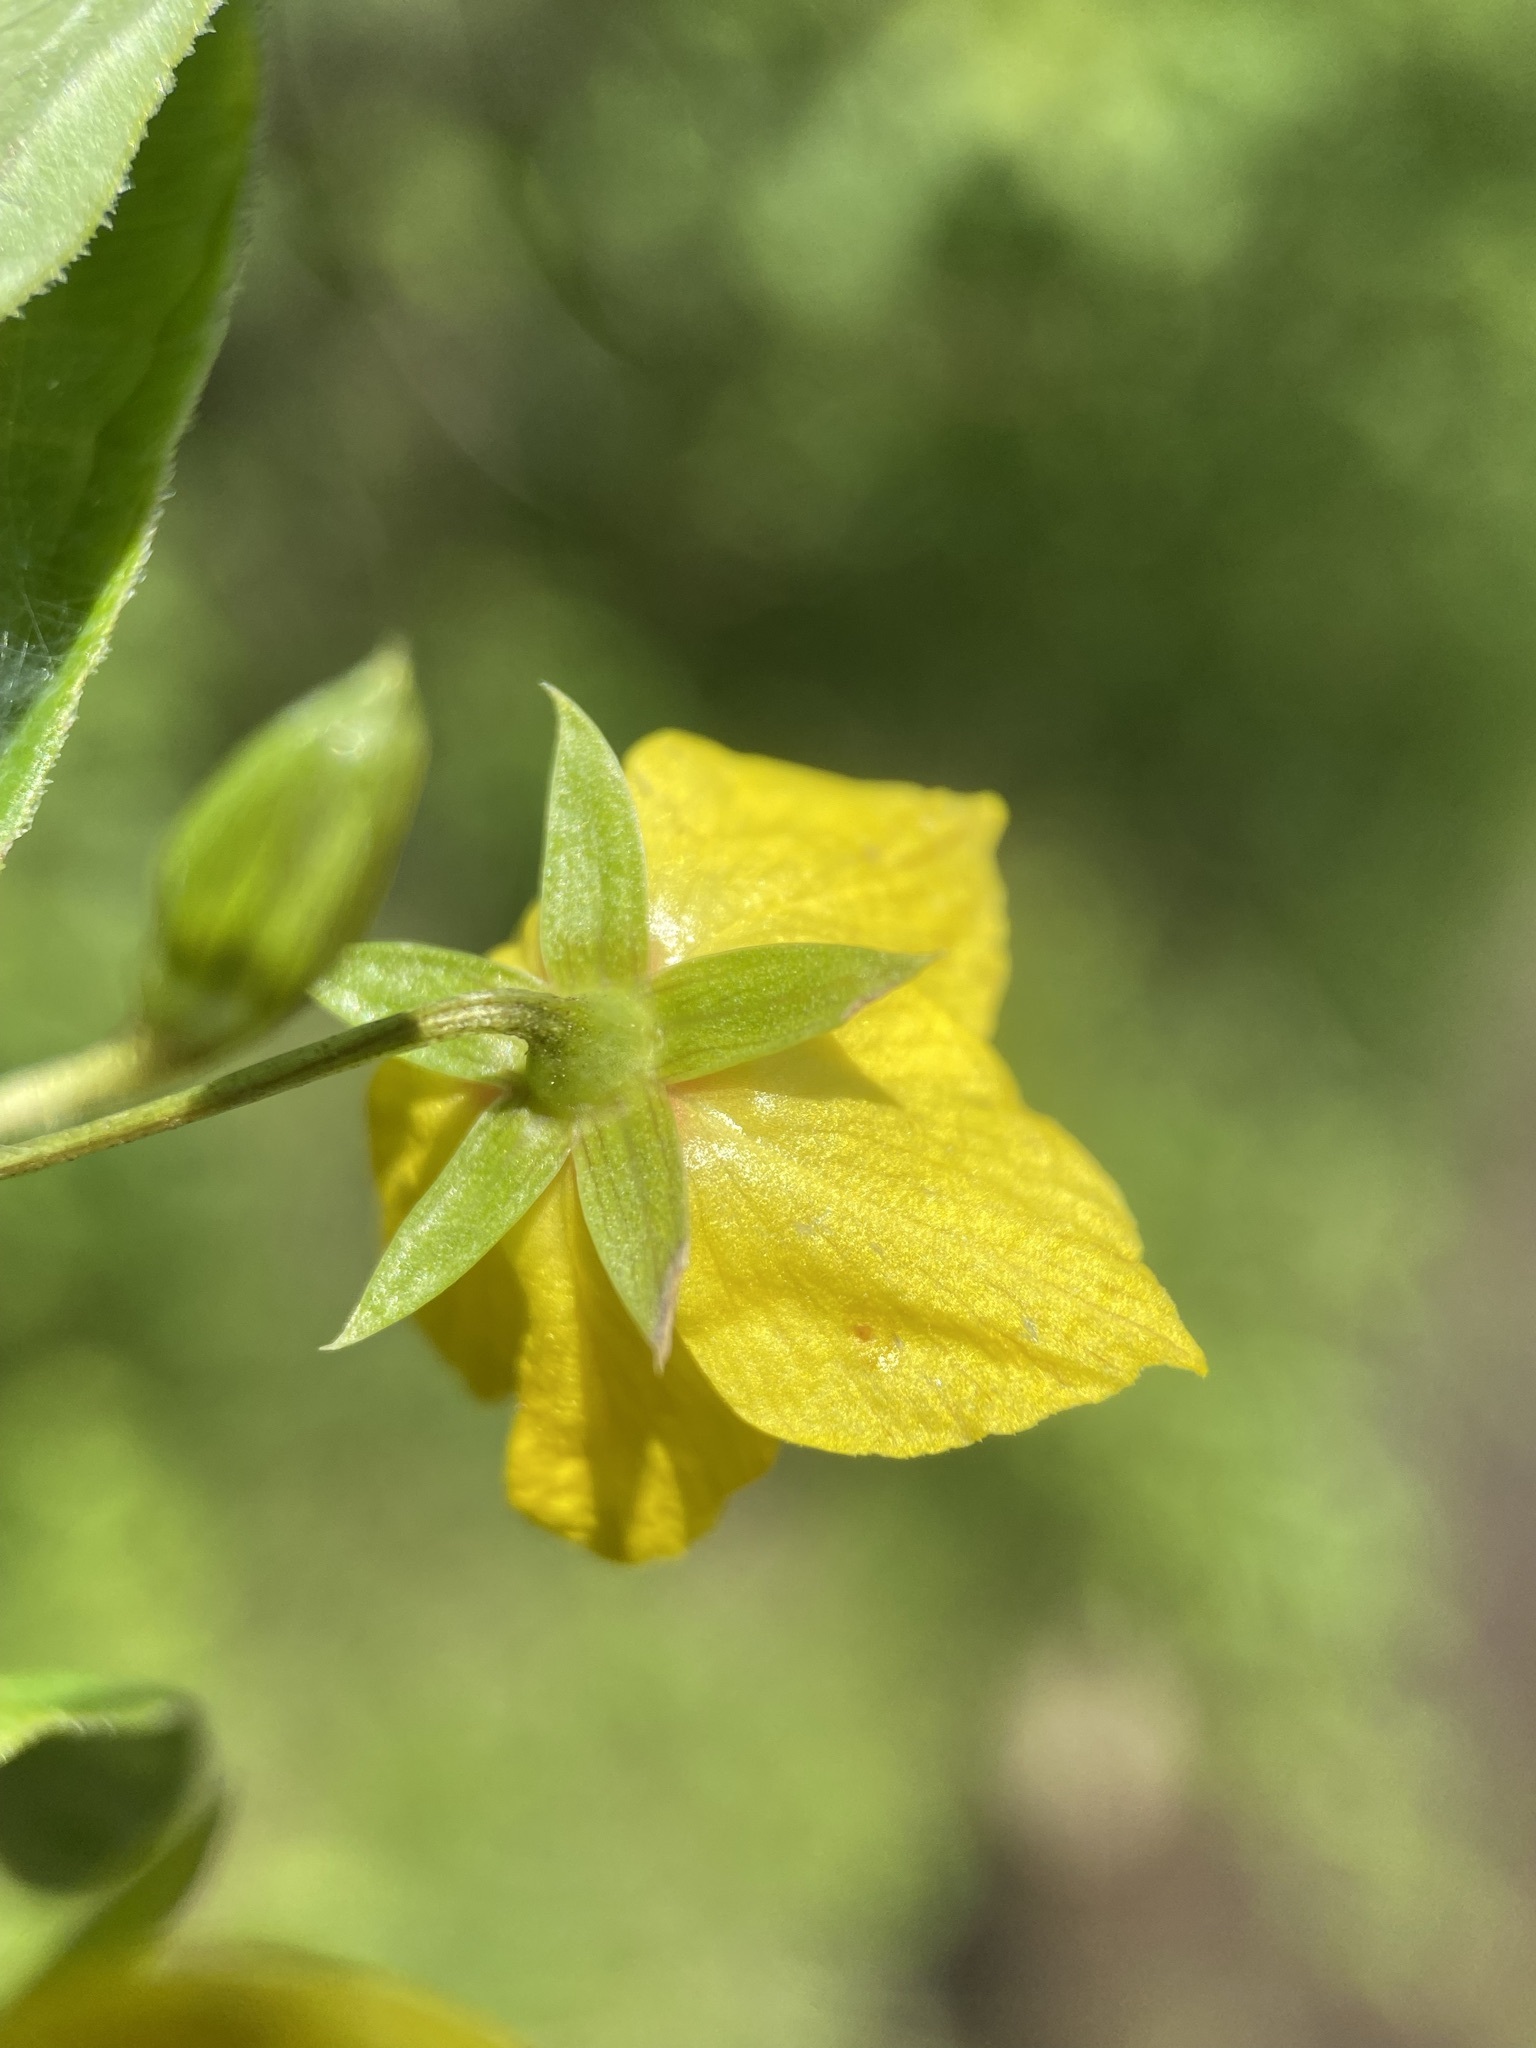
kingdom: Plantae
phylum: Tracheophyta
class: Magnoliopsida
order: Ericales
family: Primulaceae
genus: Lysimachia
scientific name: Lysimachia ciliata
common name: Fringed loosestrife
